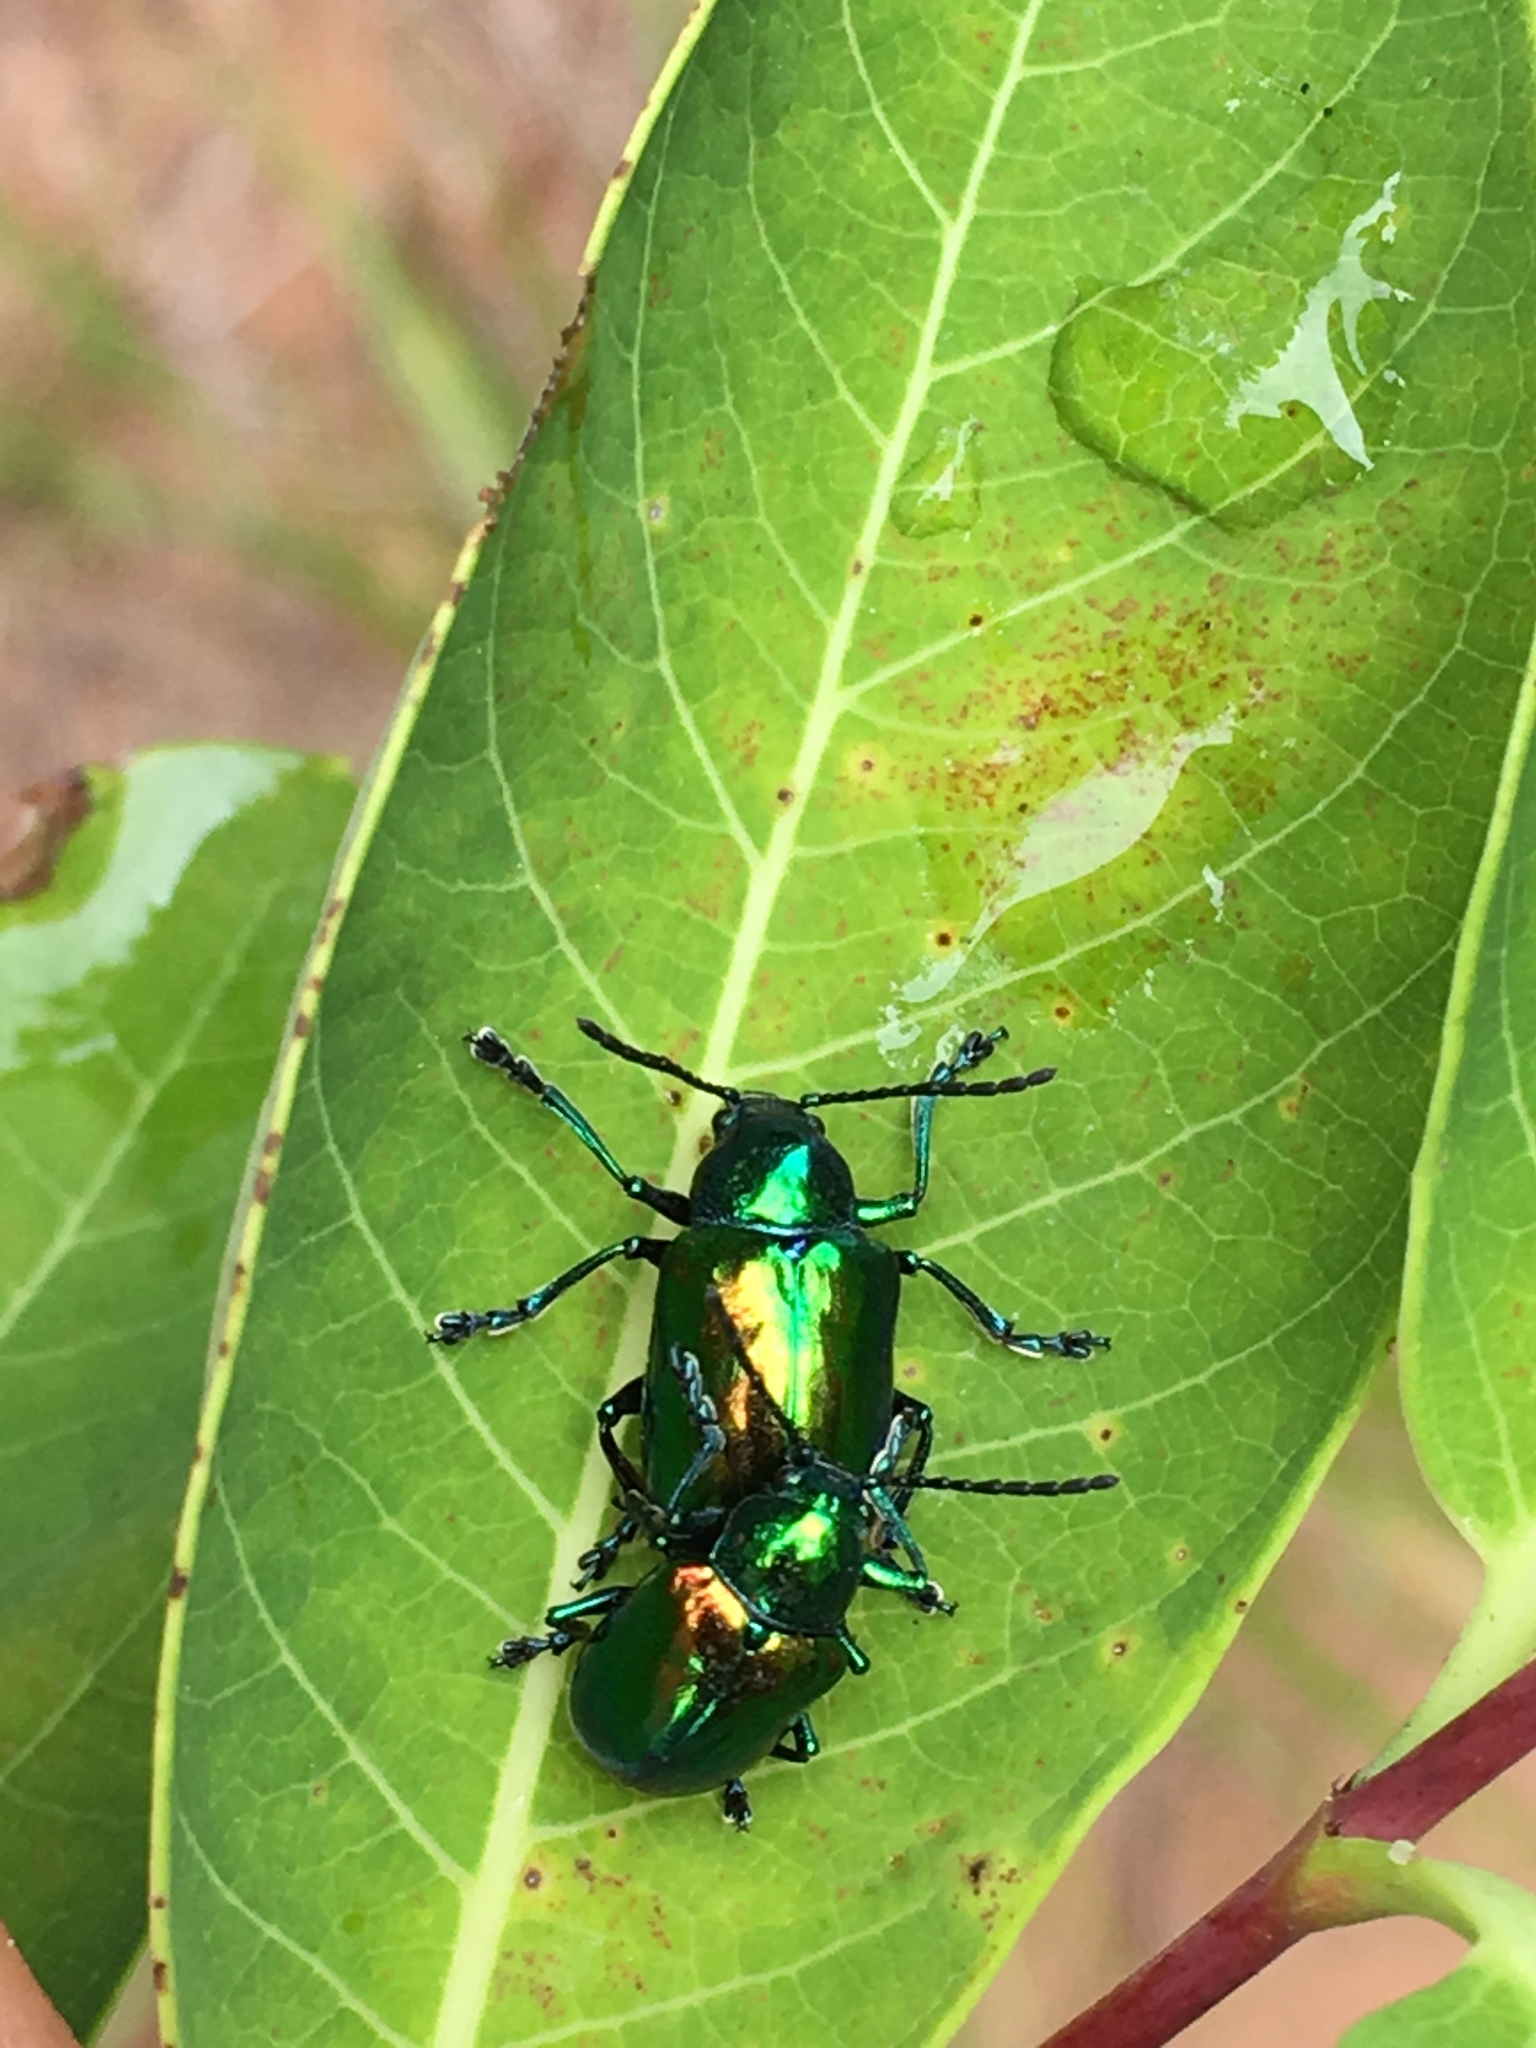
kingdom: Animalia
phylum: Arthropoda
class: Insecta
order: Coleoptera
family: Chrysomelidae
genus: Chrysochus
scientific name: Chrysochus auratus
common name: Dogbane leaf beetle
